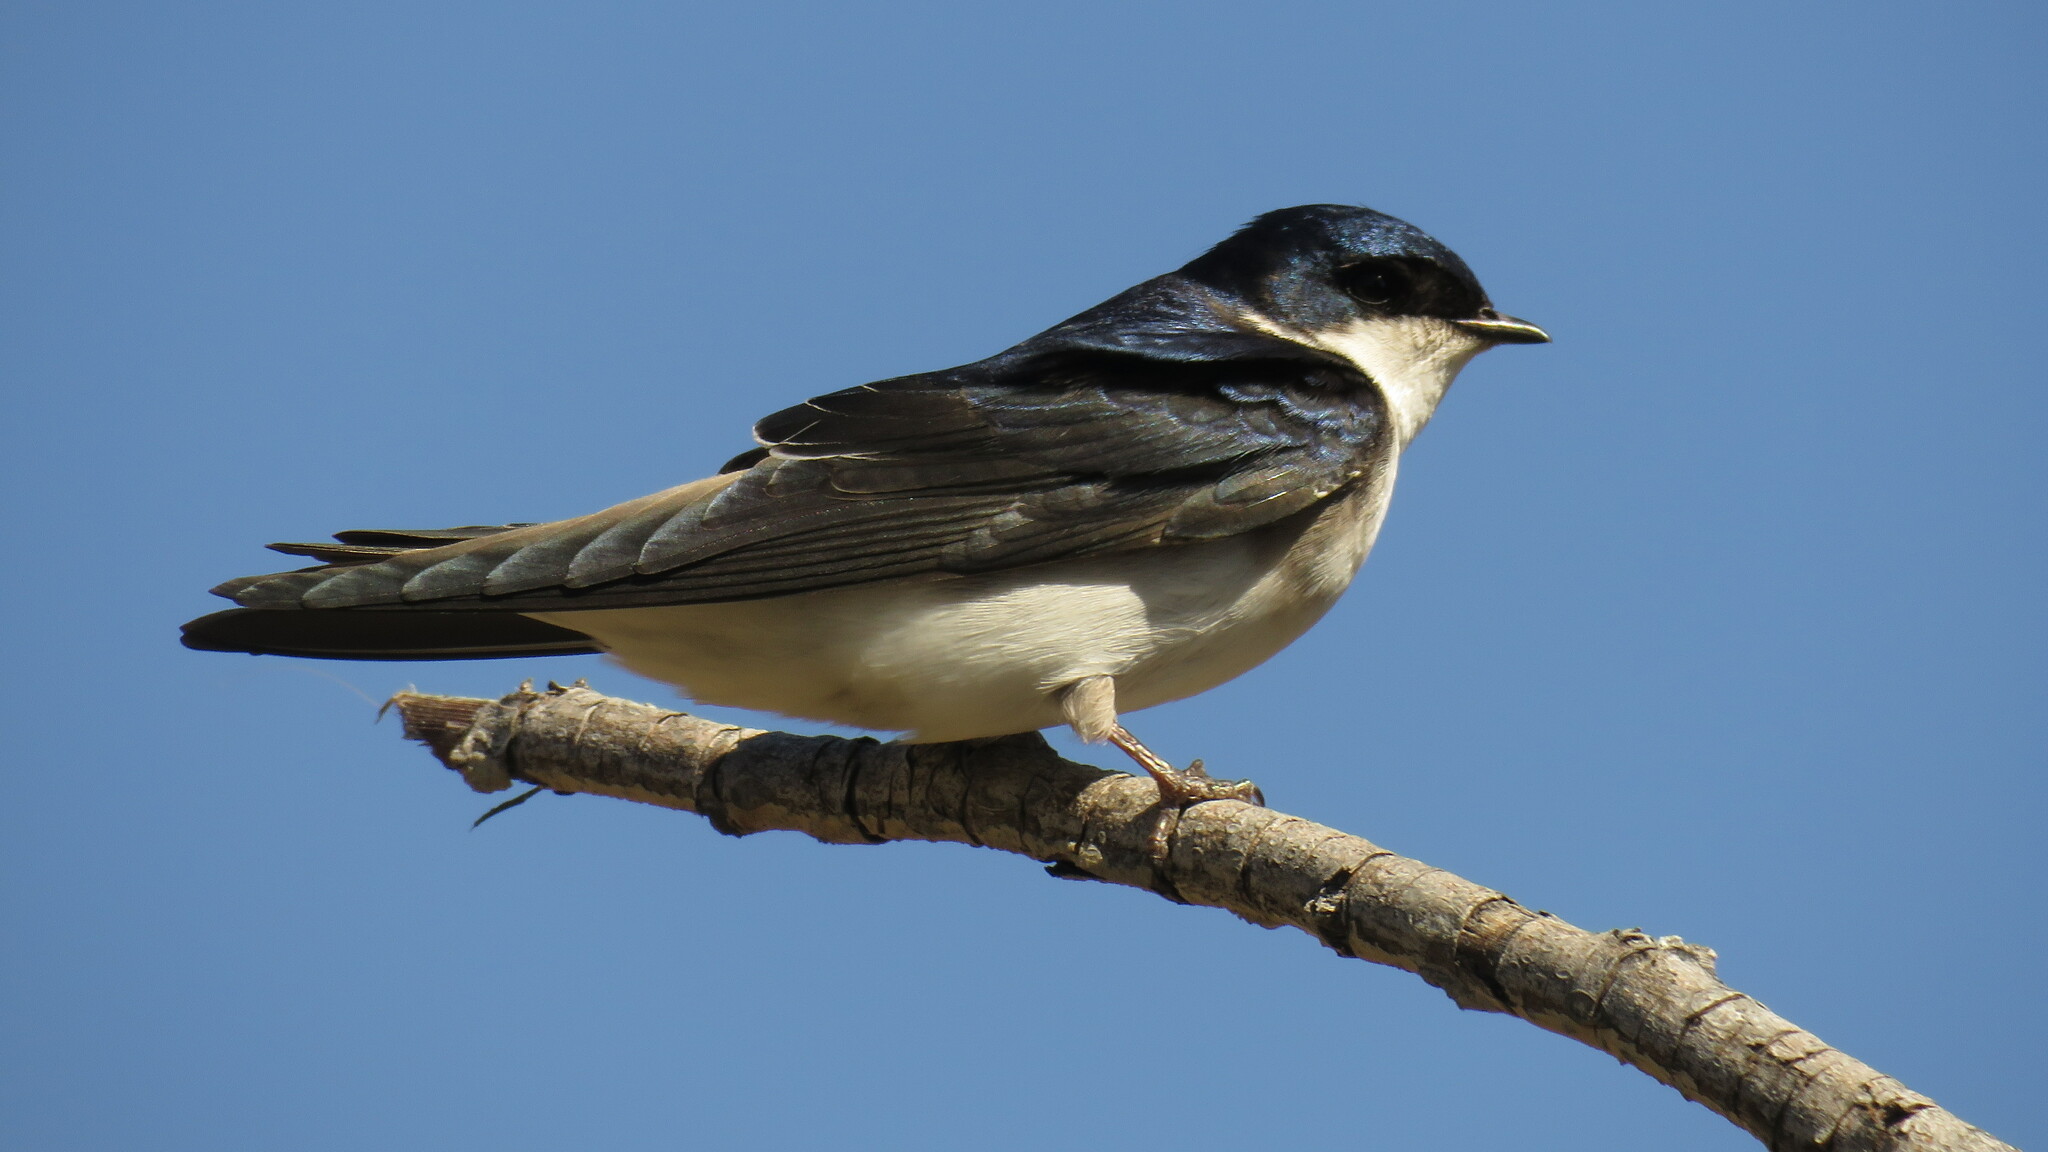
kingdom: Animalia
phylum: Chordata
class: Aves
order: Passeriformes
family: Hirundinidae
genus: Tachycineta
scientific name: Tachycineta leucopyga
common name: Chilean swallow
